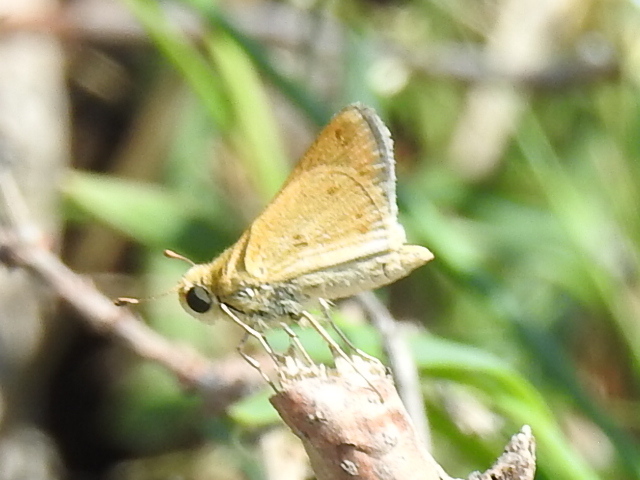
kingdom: Animalia
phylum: Arthropoda
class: Insecta
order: Lepidoptera
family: Hesperiidae
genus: Hylephila
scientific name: Hylephila phyleus
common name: Fiery skipper
